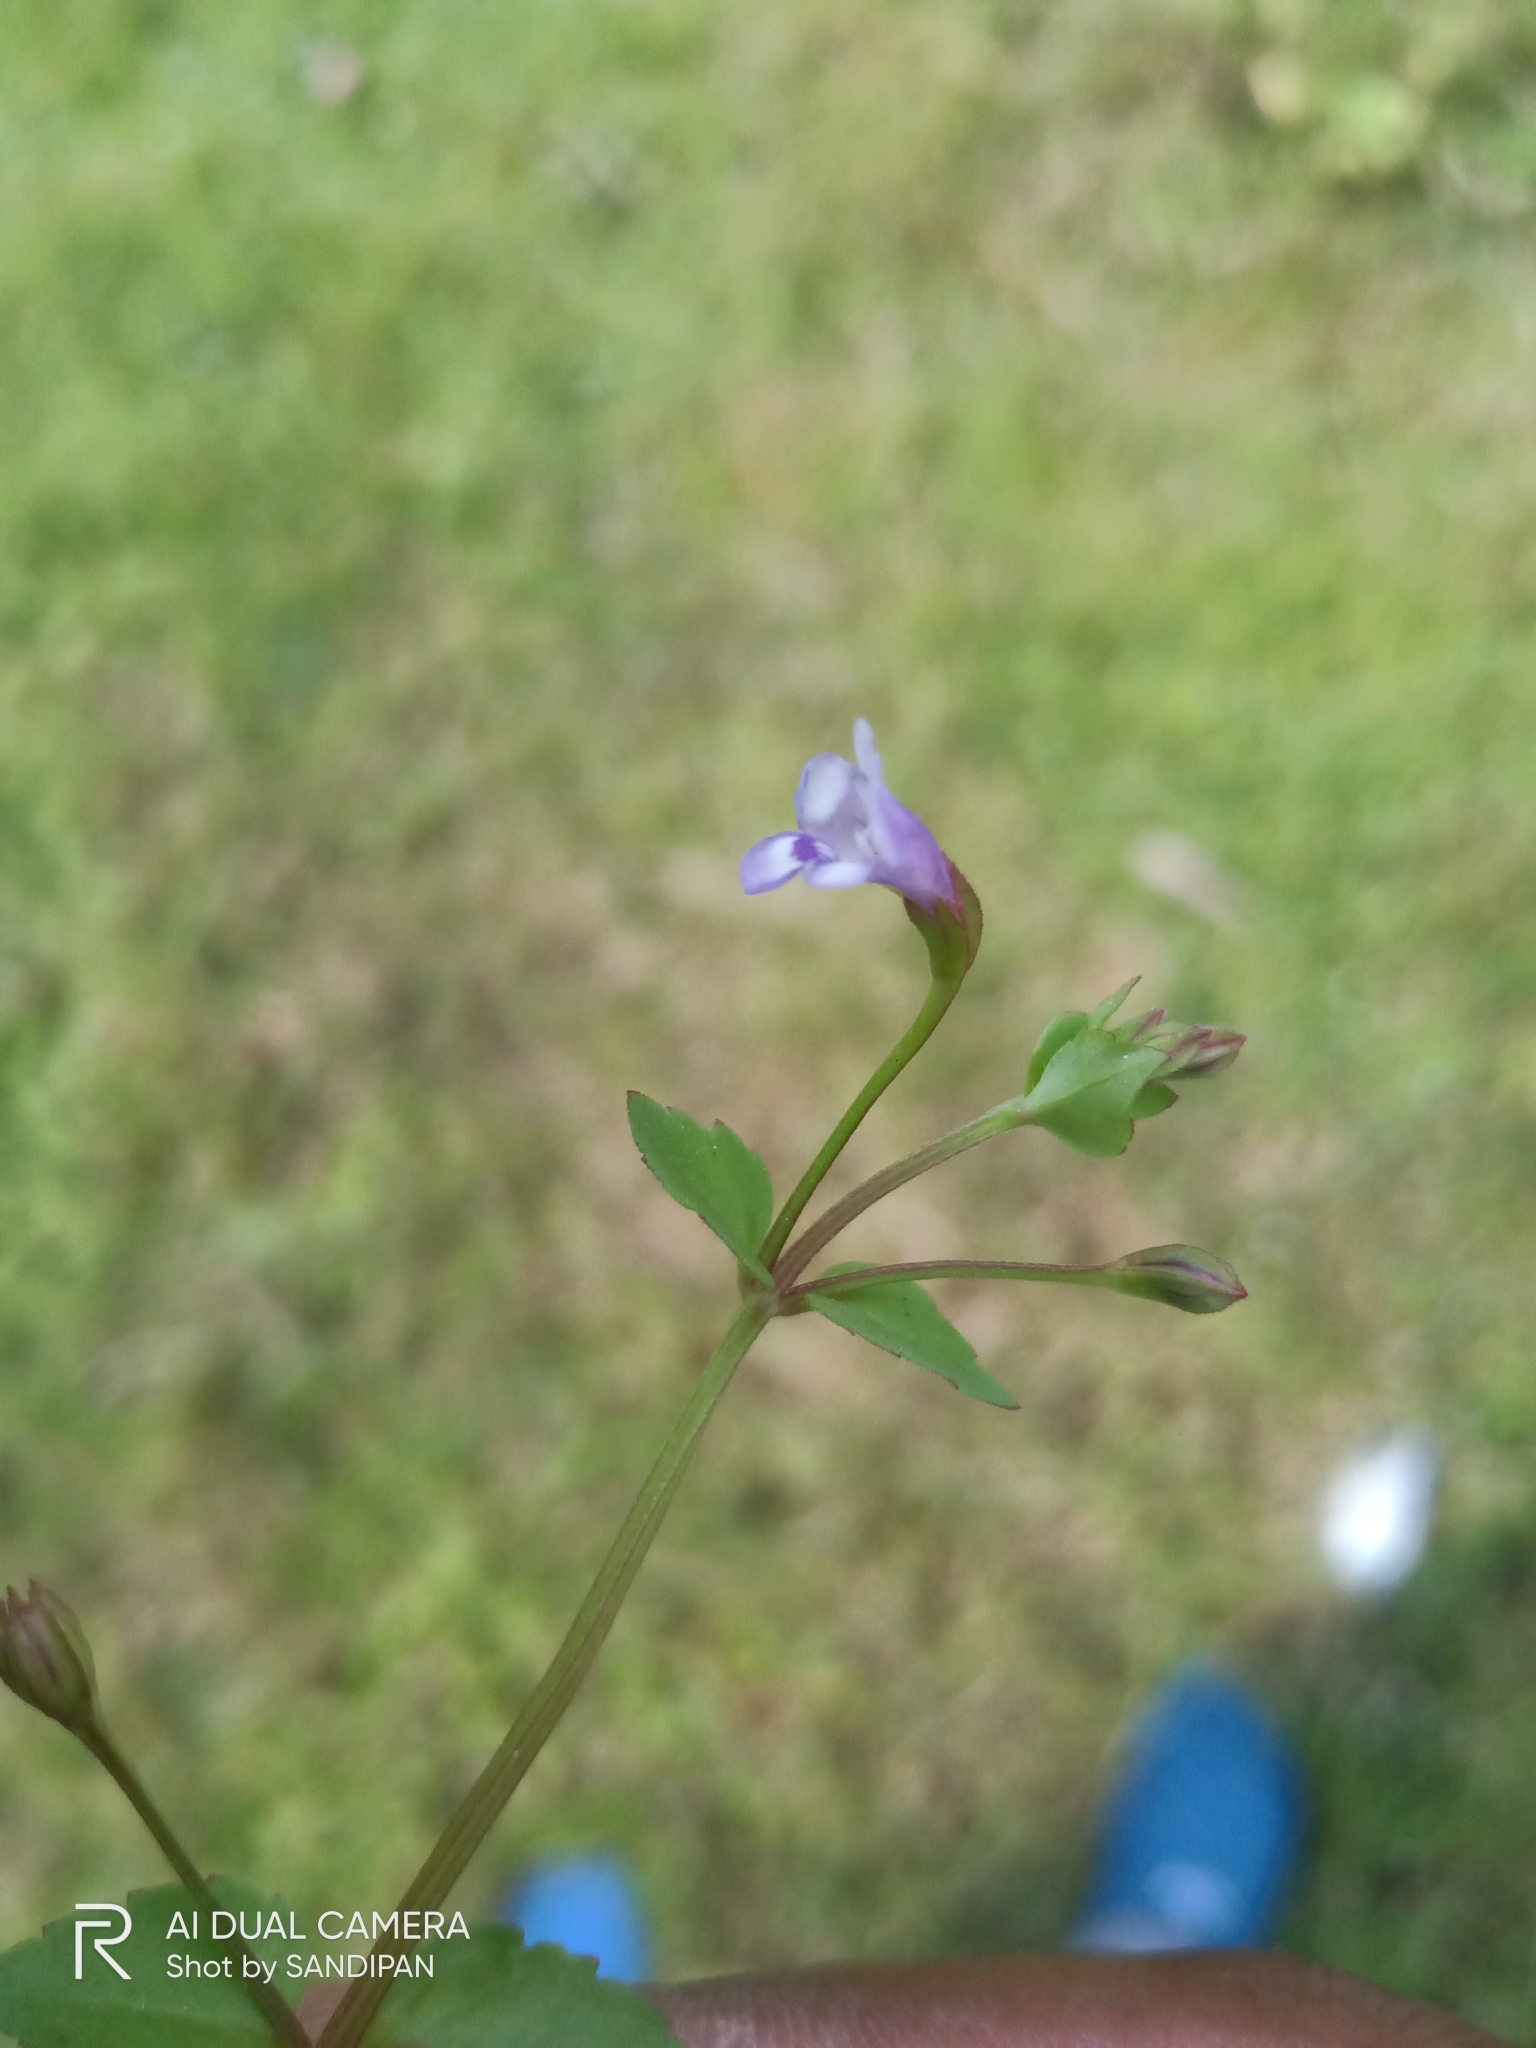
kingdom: Plantae
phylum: Tracheophyta
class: Magnoliopsida
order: Lamiales
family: Linderniaceae
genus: Torenia
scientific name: Torenia crustacea
